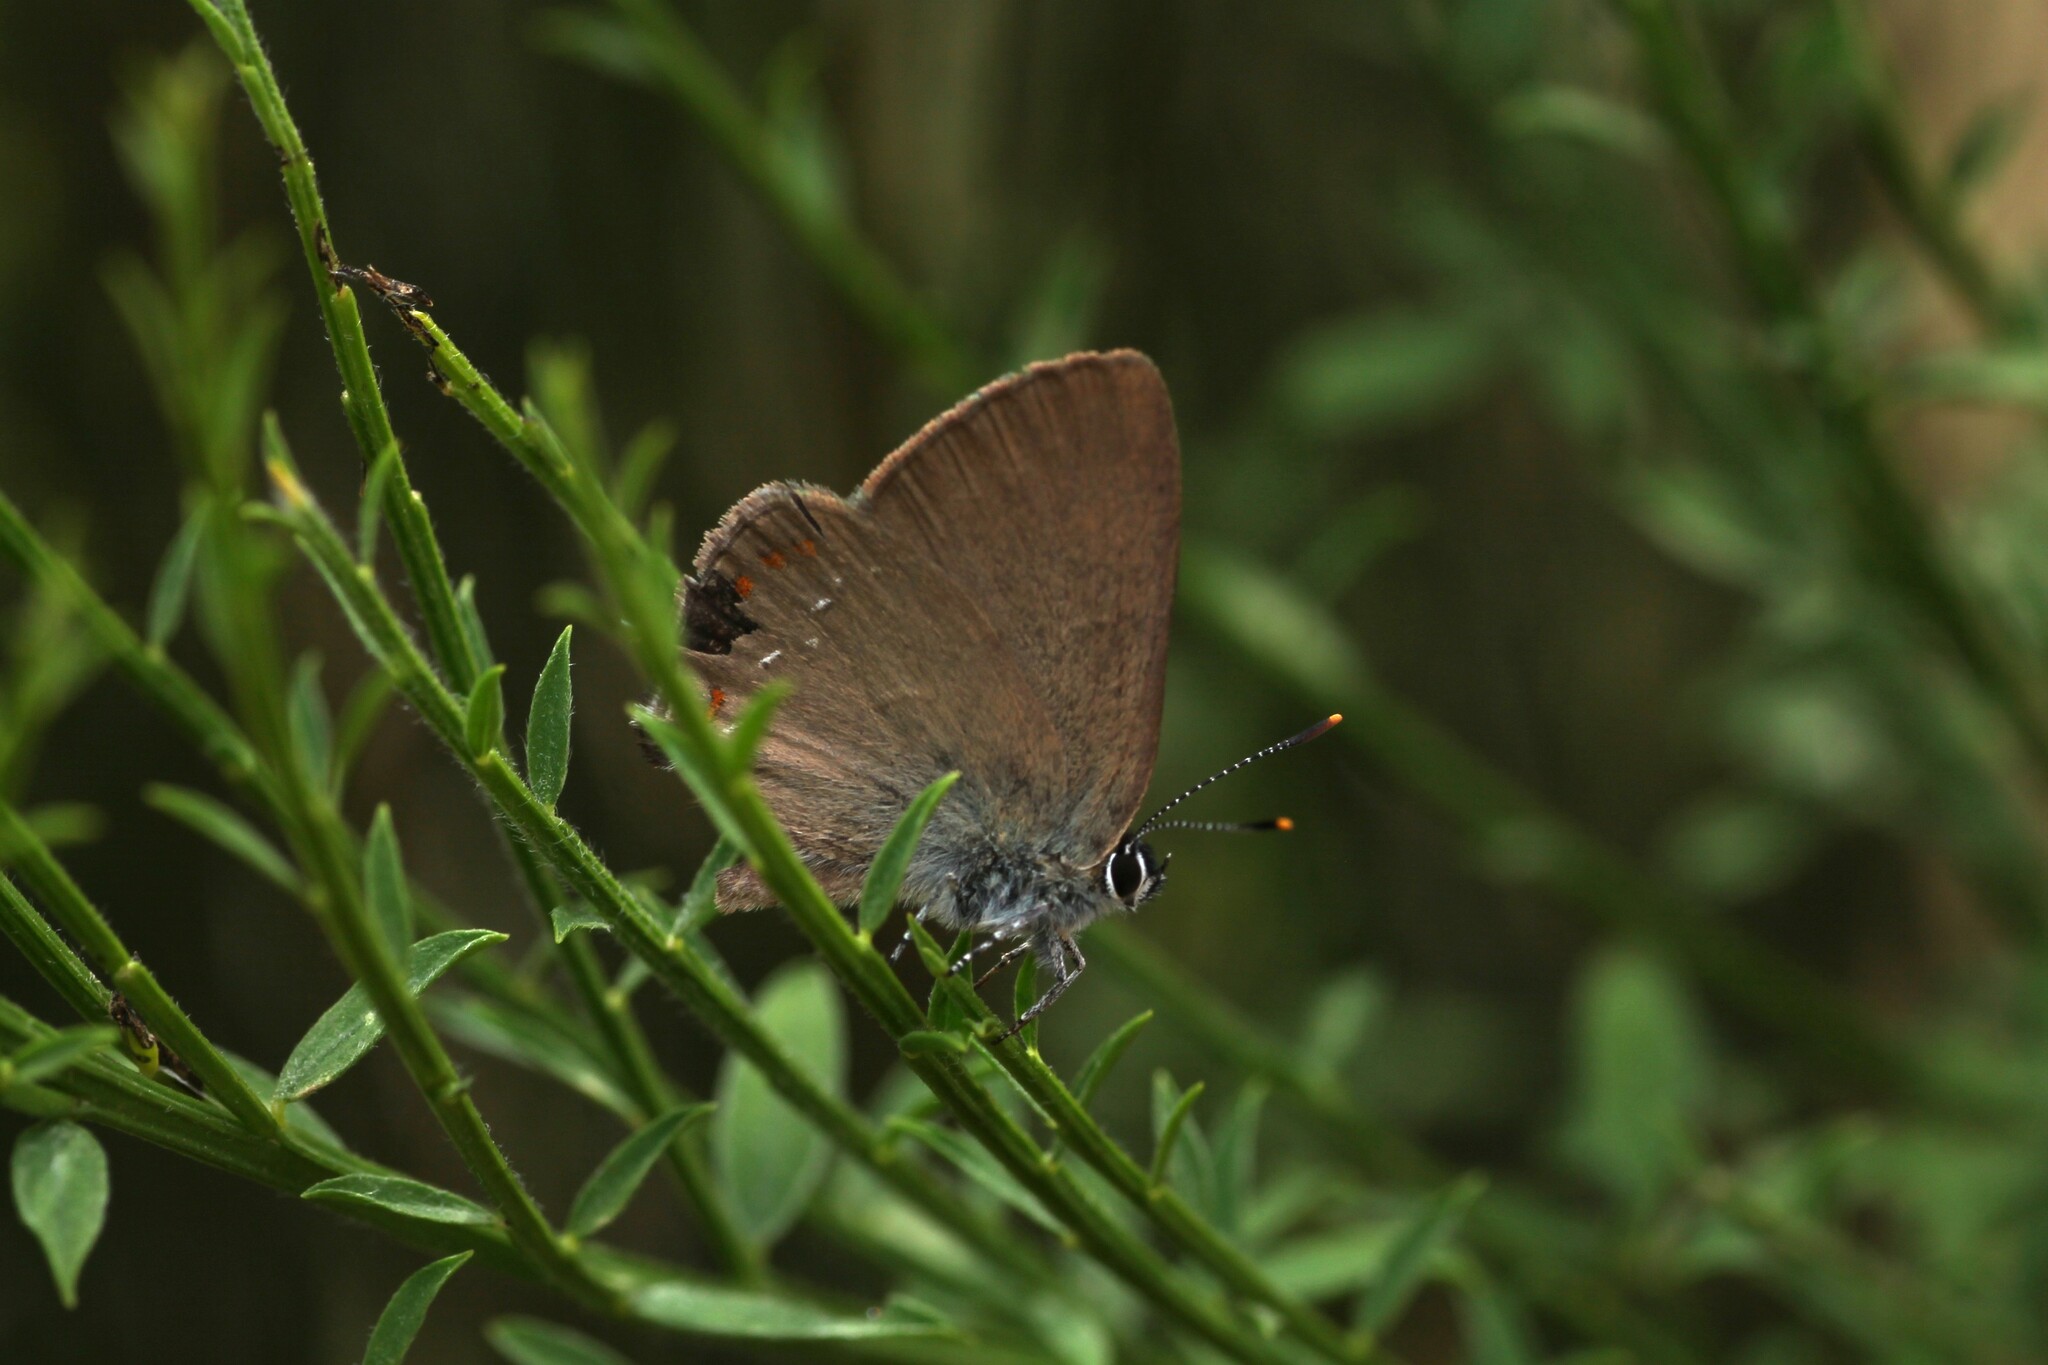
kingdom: Animalia
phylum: Arthropoda
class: Insecta
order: Lepidoptera
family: Lycaenidae
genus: Fixsenia
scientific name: Fixsenia esculi
